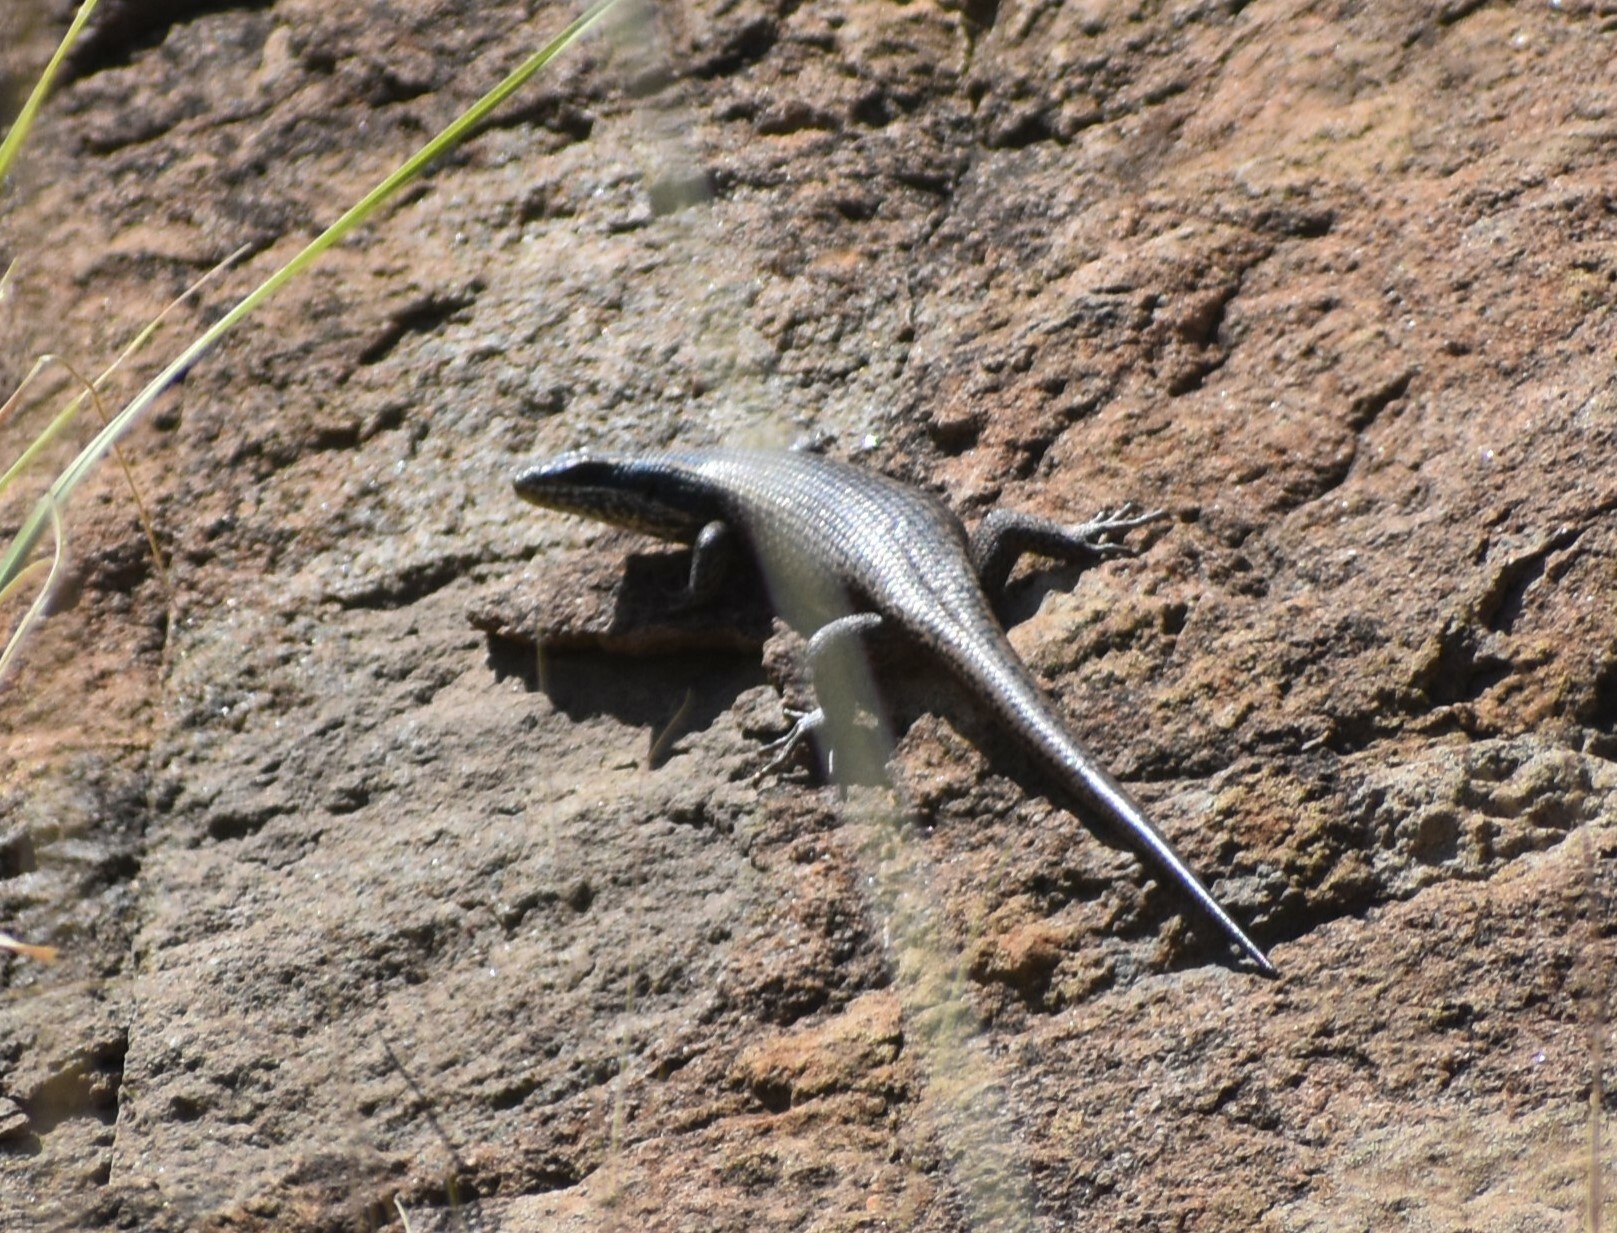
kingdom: Animalia
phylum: Chordata
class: Squamata
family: Scincidae
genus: Trachylepis
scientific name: Trachylepis punctatissima
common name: Montane speckled skink
